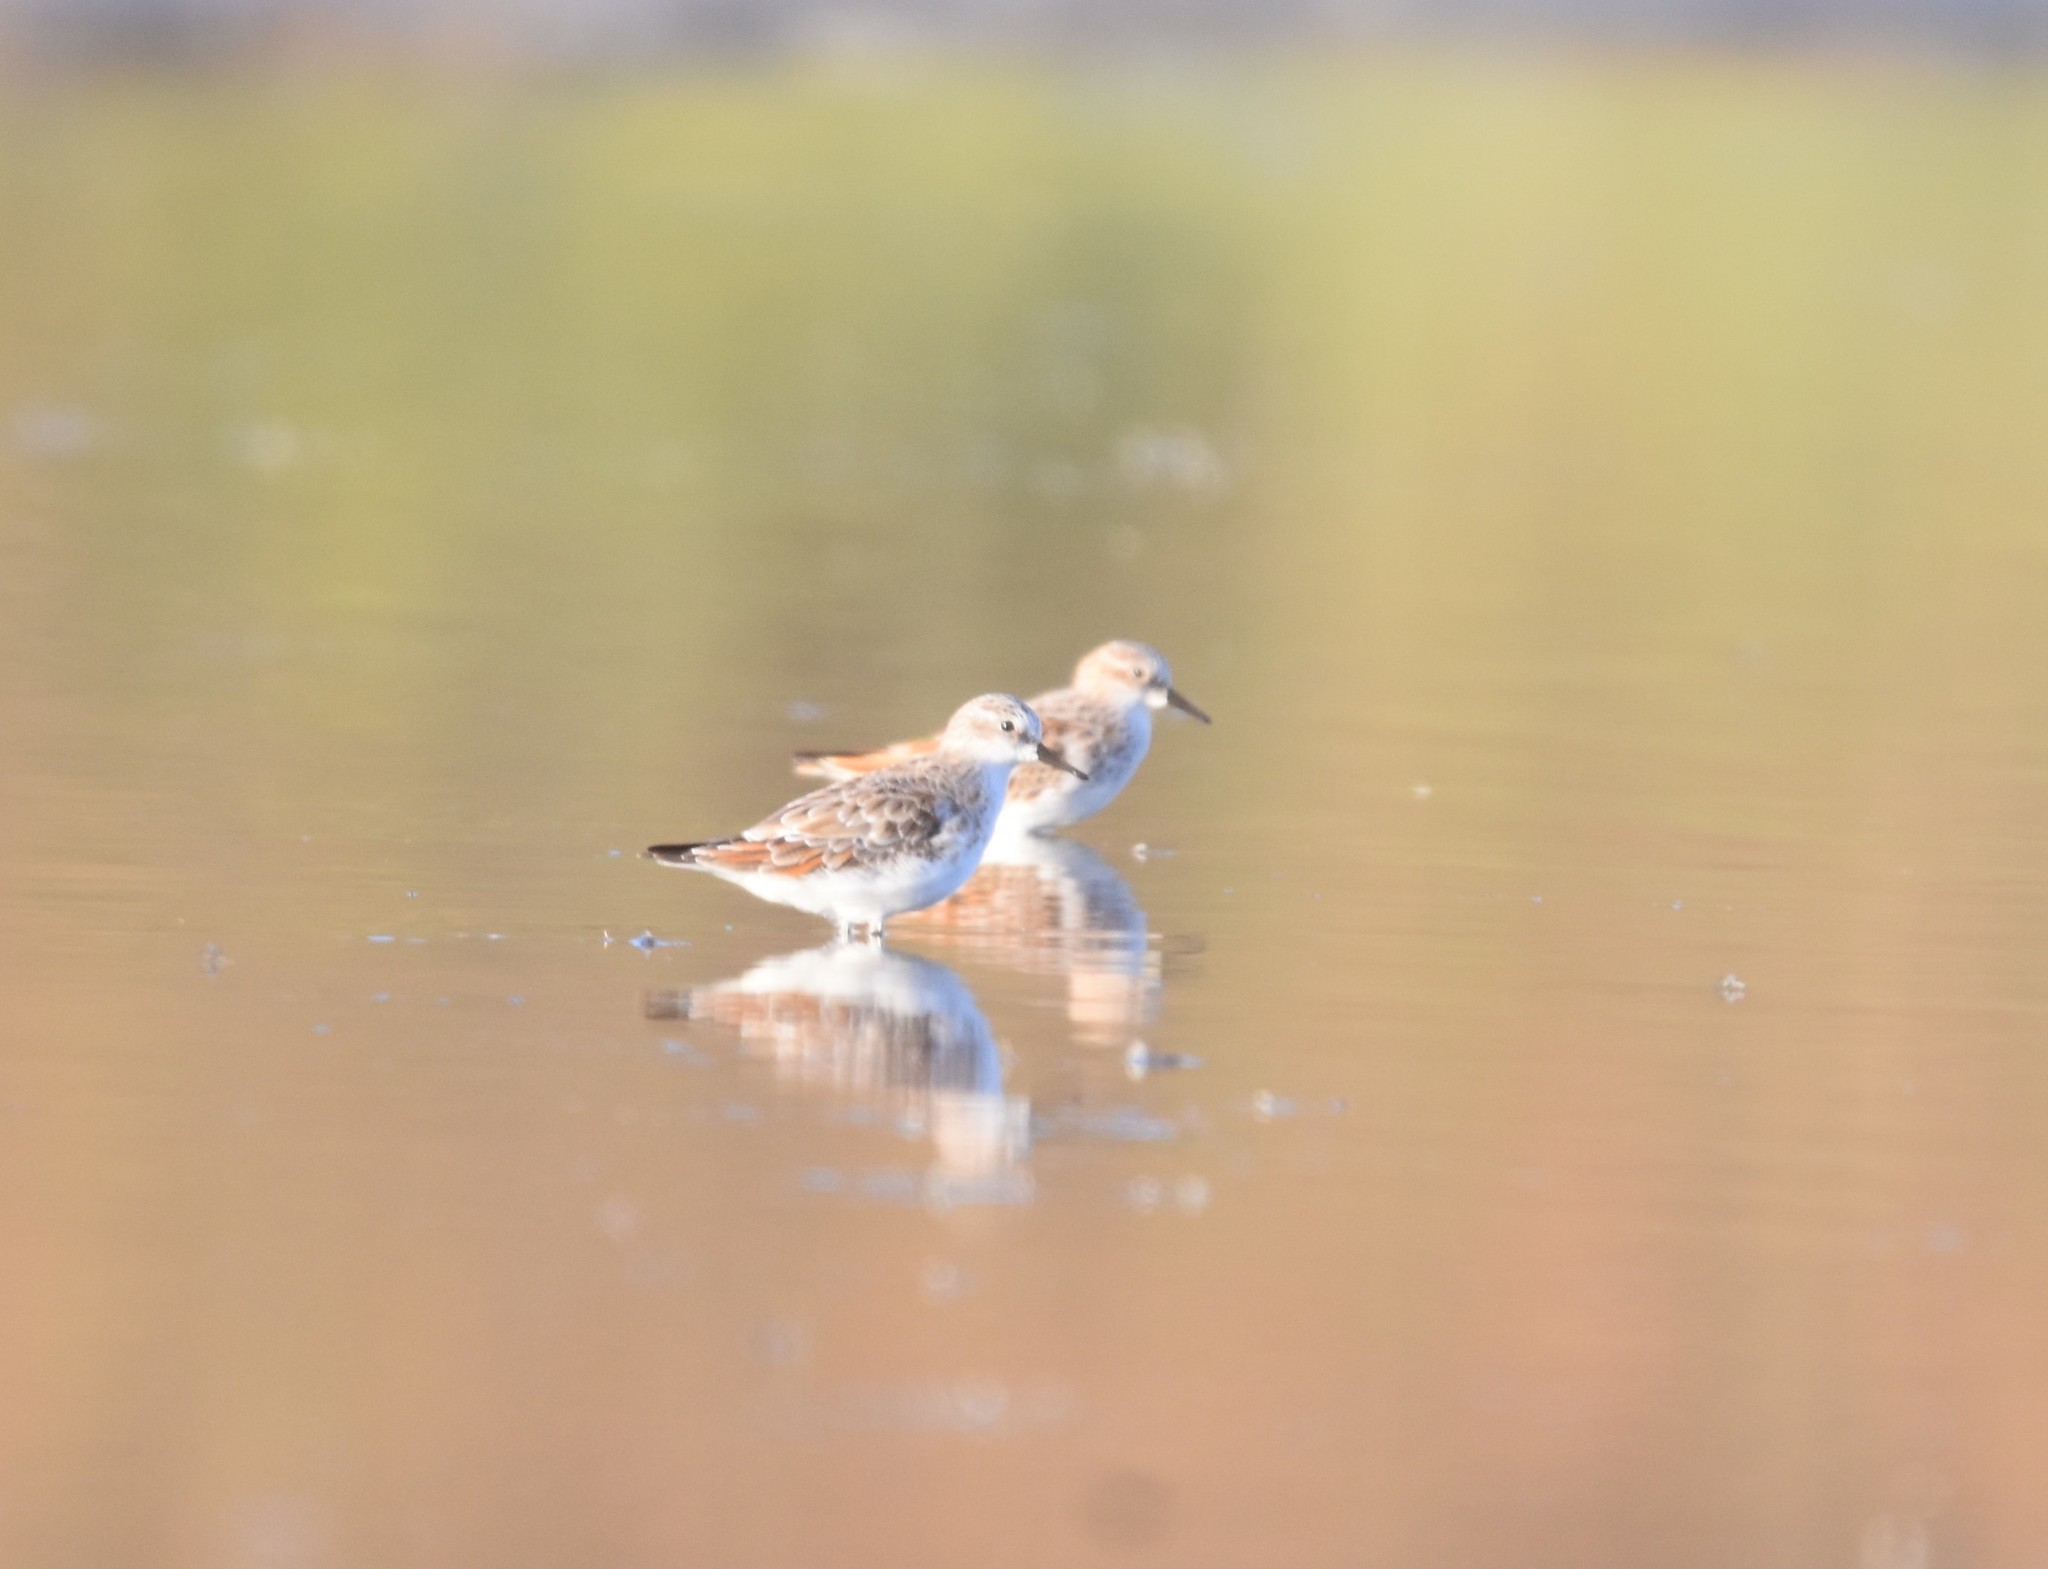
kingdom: Animalia
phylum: Chordata
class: Aves
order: Charadriiformes
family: Scolopacidae
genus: Calidris
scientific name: Calidris minuta
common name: Little stint
